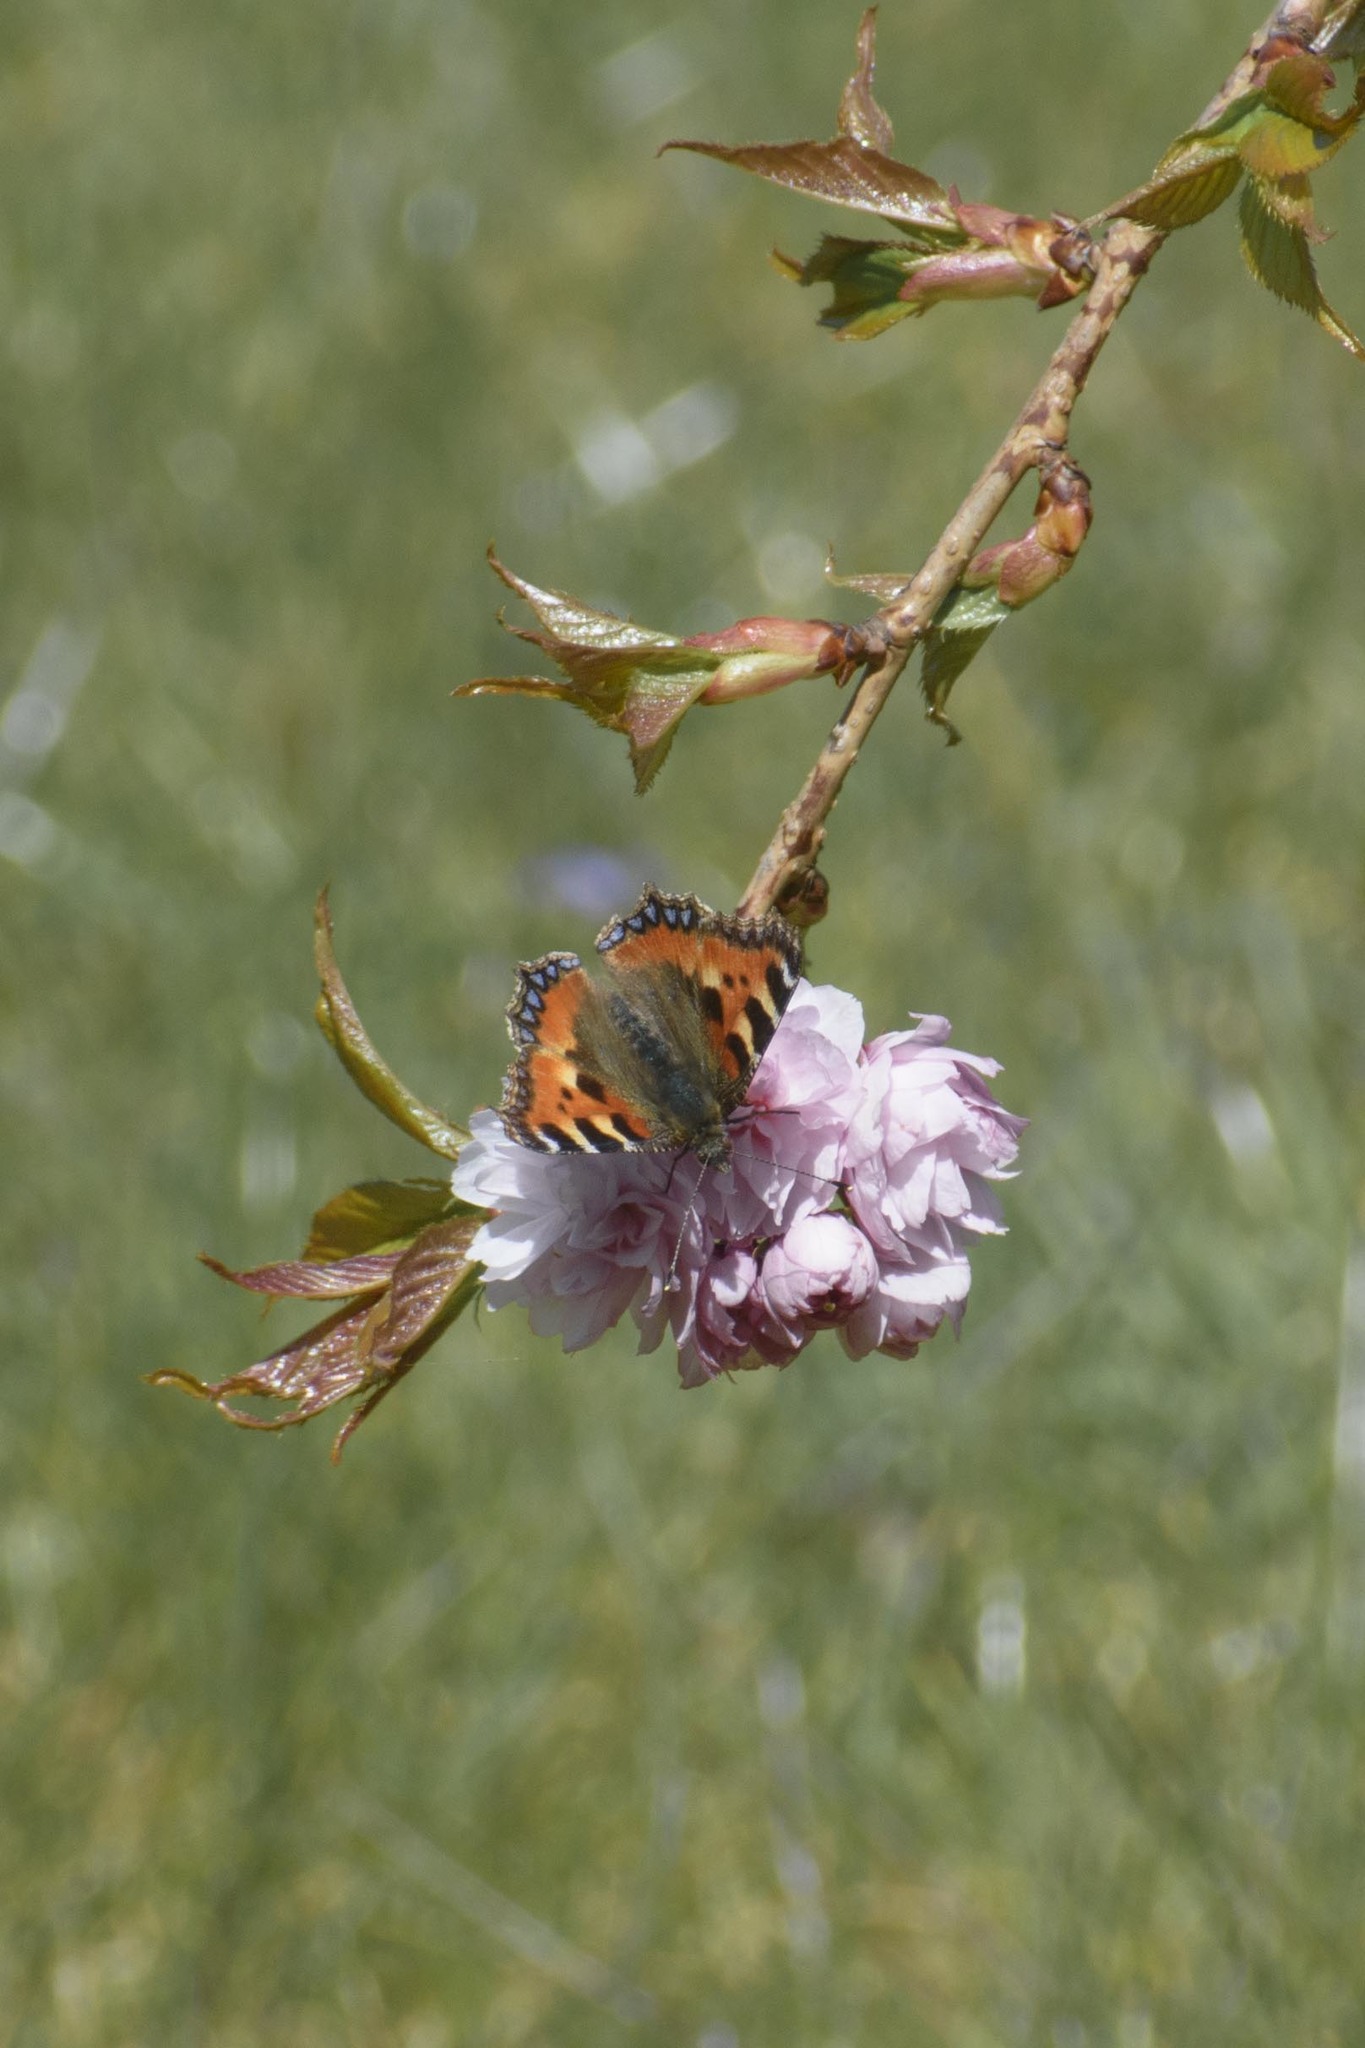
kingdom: Animalia
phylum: Arthropoda
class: Insecta
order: Lepidoptera
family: Nymphalidae
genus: Aglais
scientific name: Aglais urticae
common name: Small tortoiseshell
